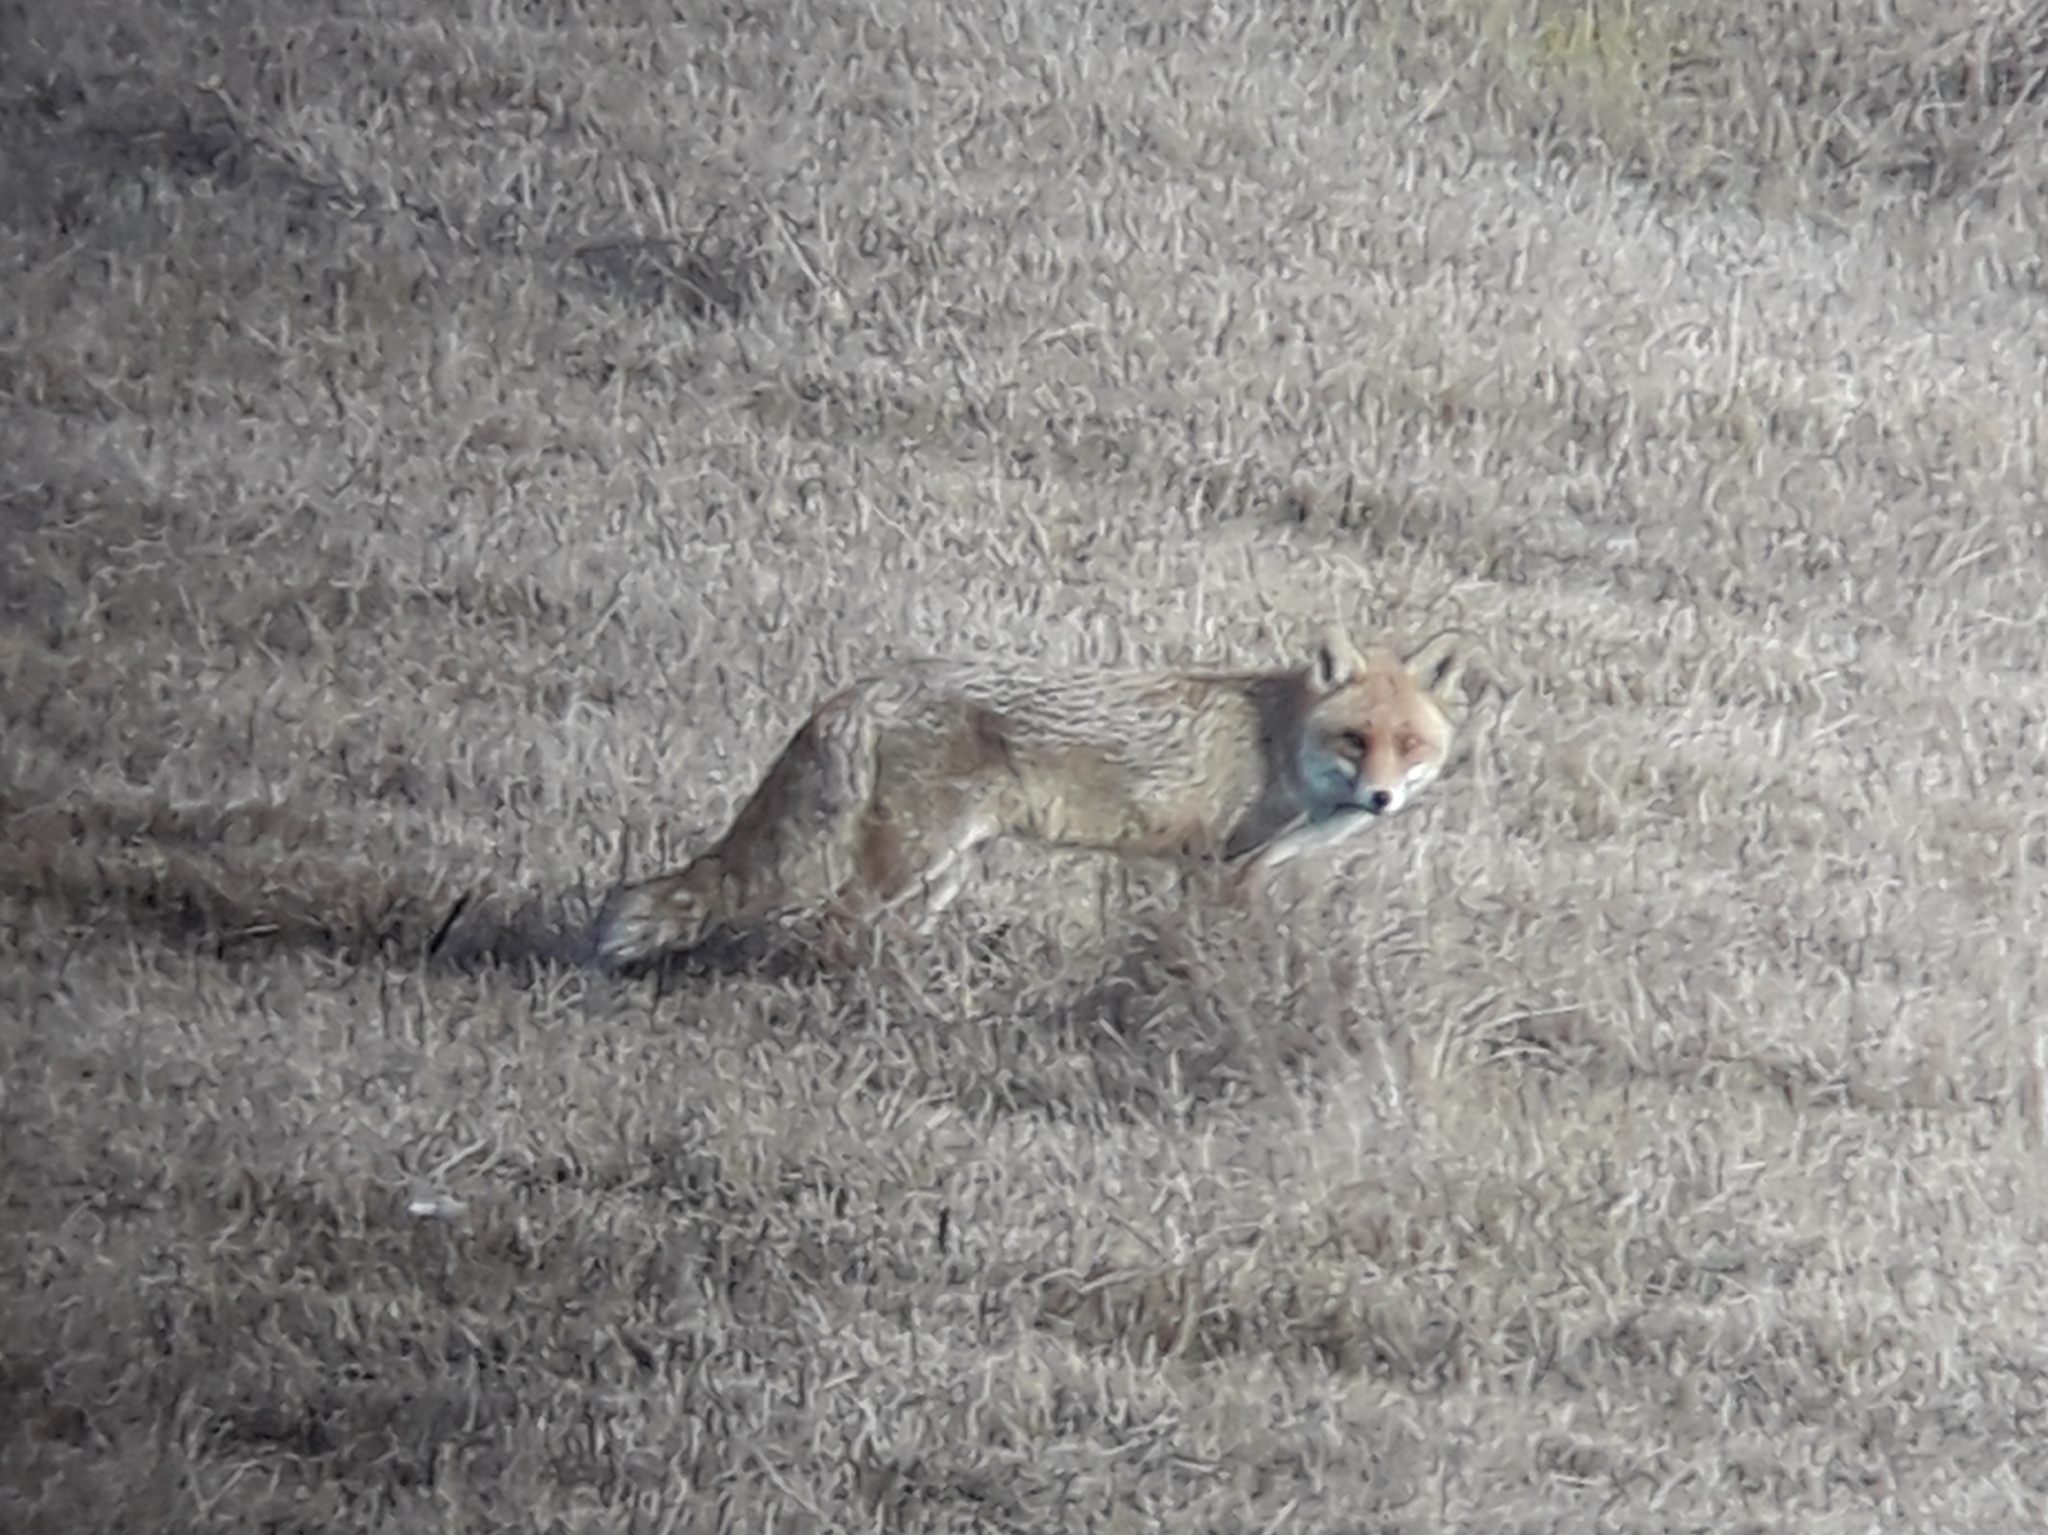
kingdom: Animalia
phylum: Chordata
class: Mammalia
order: Carnivora
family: Canidae
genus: Vulpes
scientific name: Vulpes vulpes
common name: Red fox
